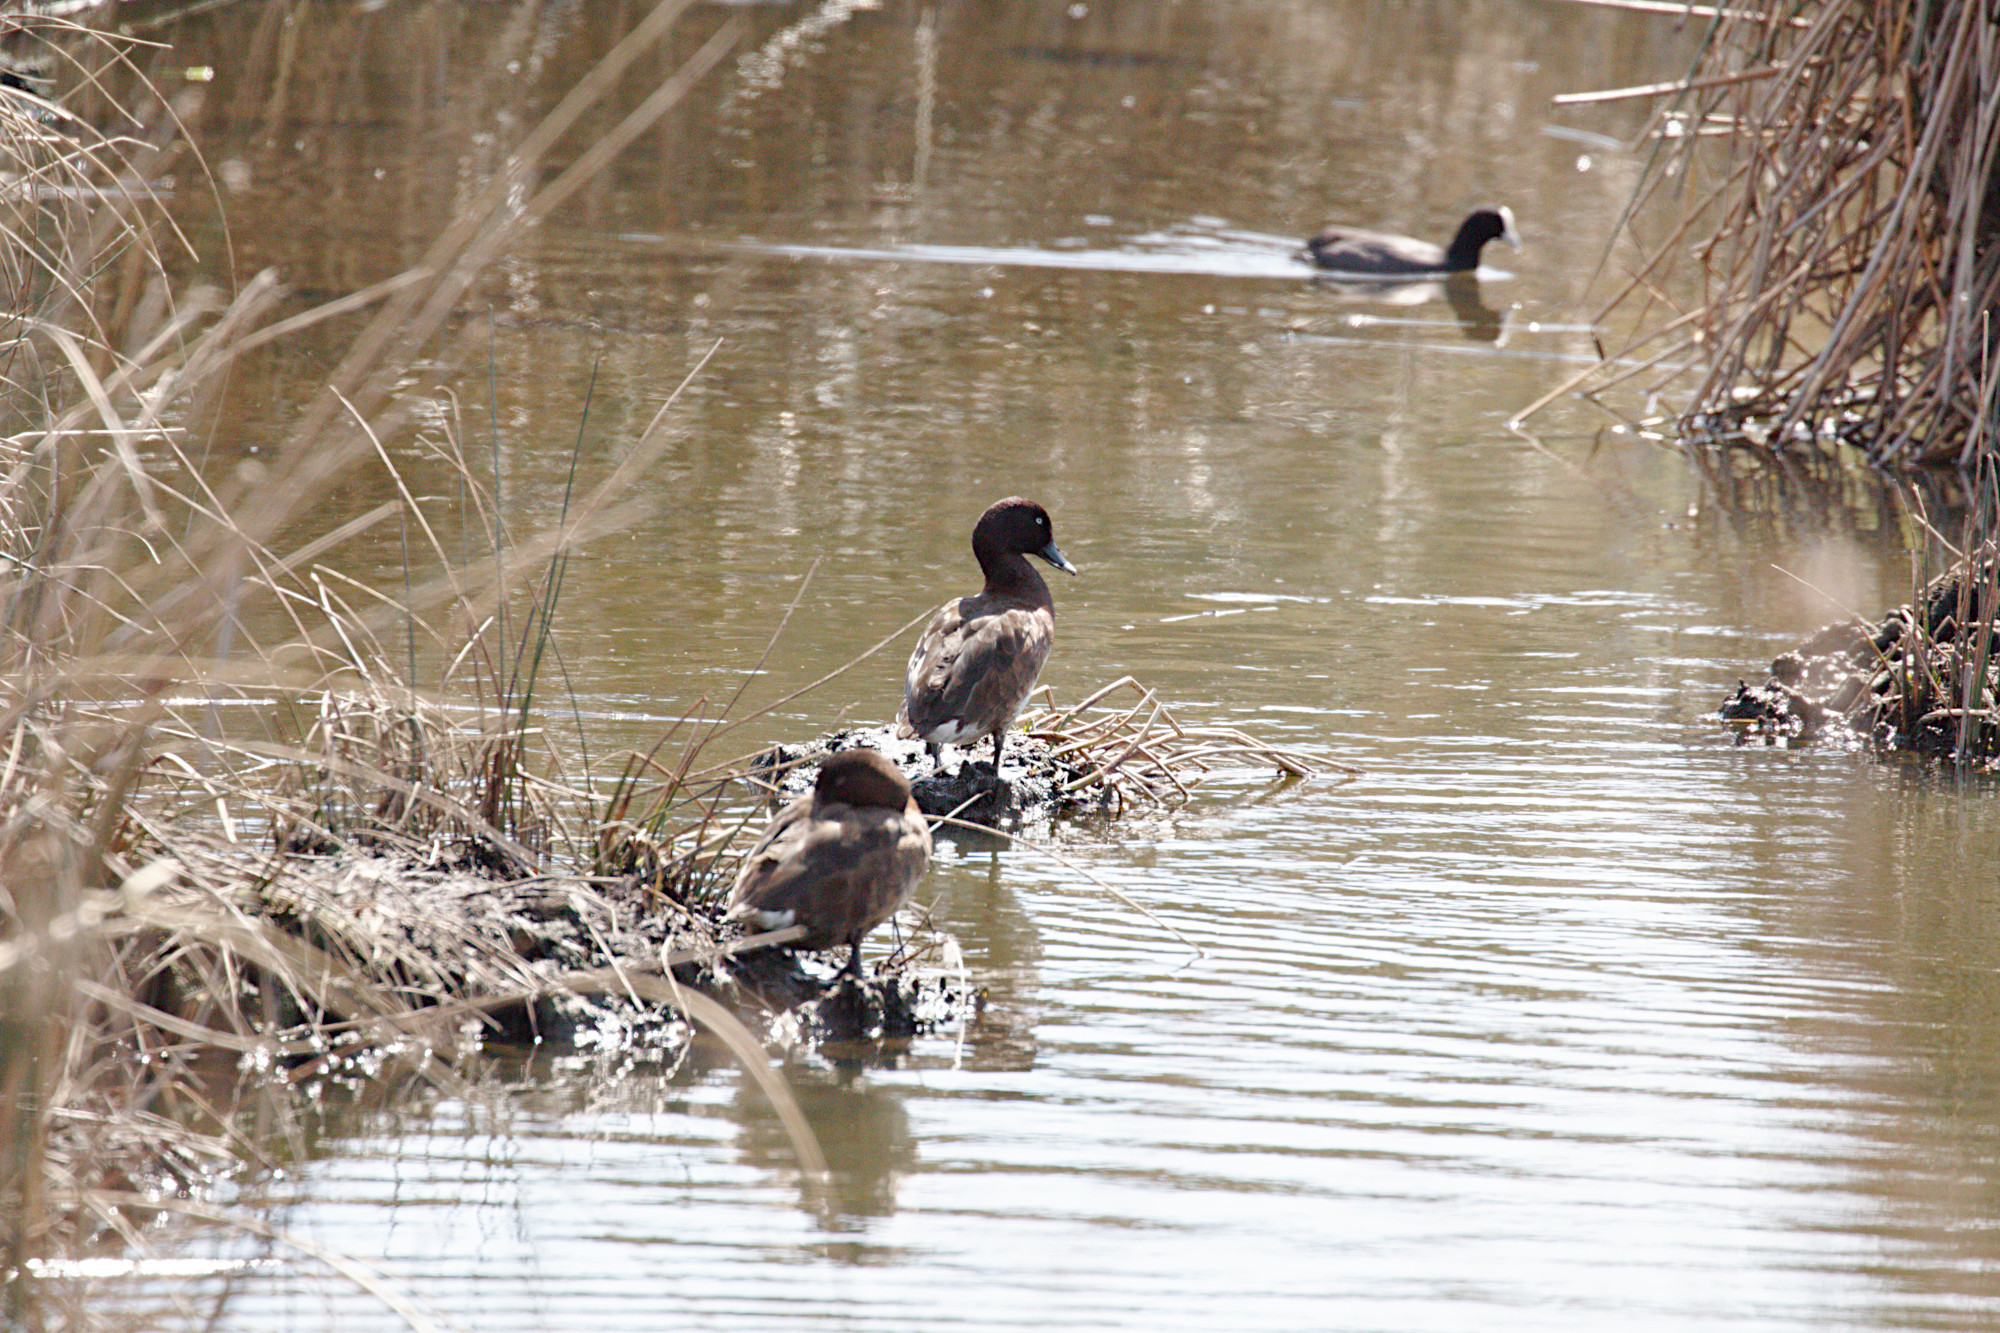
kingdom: Animalia
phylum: Chordata
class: Aves
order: Anseriformes
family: Anatidae
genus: Aythya
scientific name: Aythya australis
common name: Hardhead
